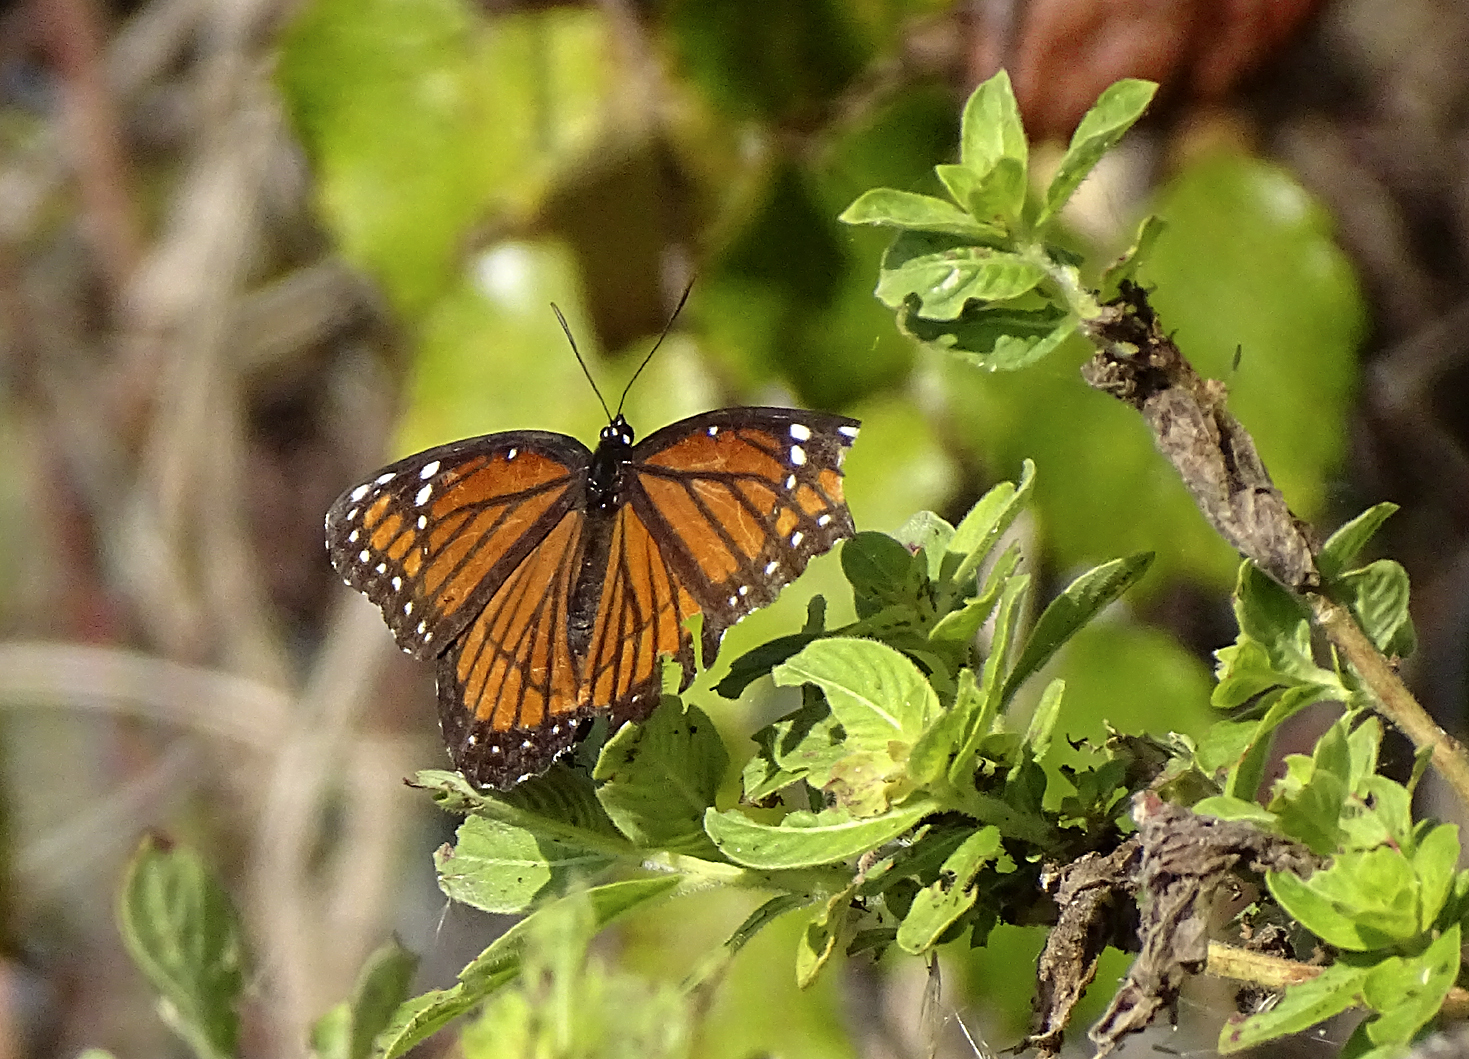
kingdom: Animalia
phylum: Arthropoda
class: Insecta
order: Lepidoptera
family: Nymphalidae
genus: Limenitis
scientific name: Limenitis archippus
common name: Viceroy
